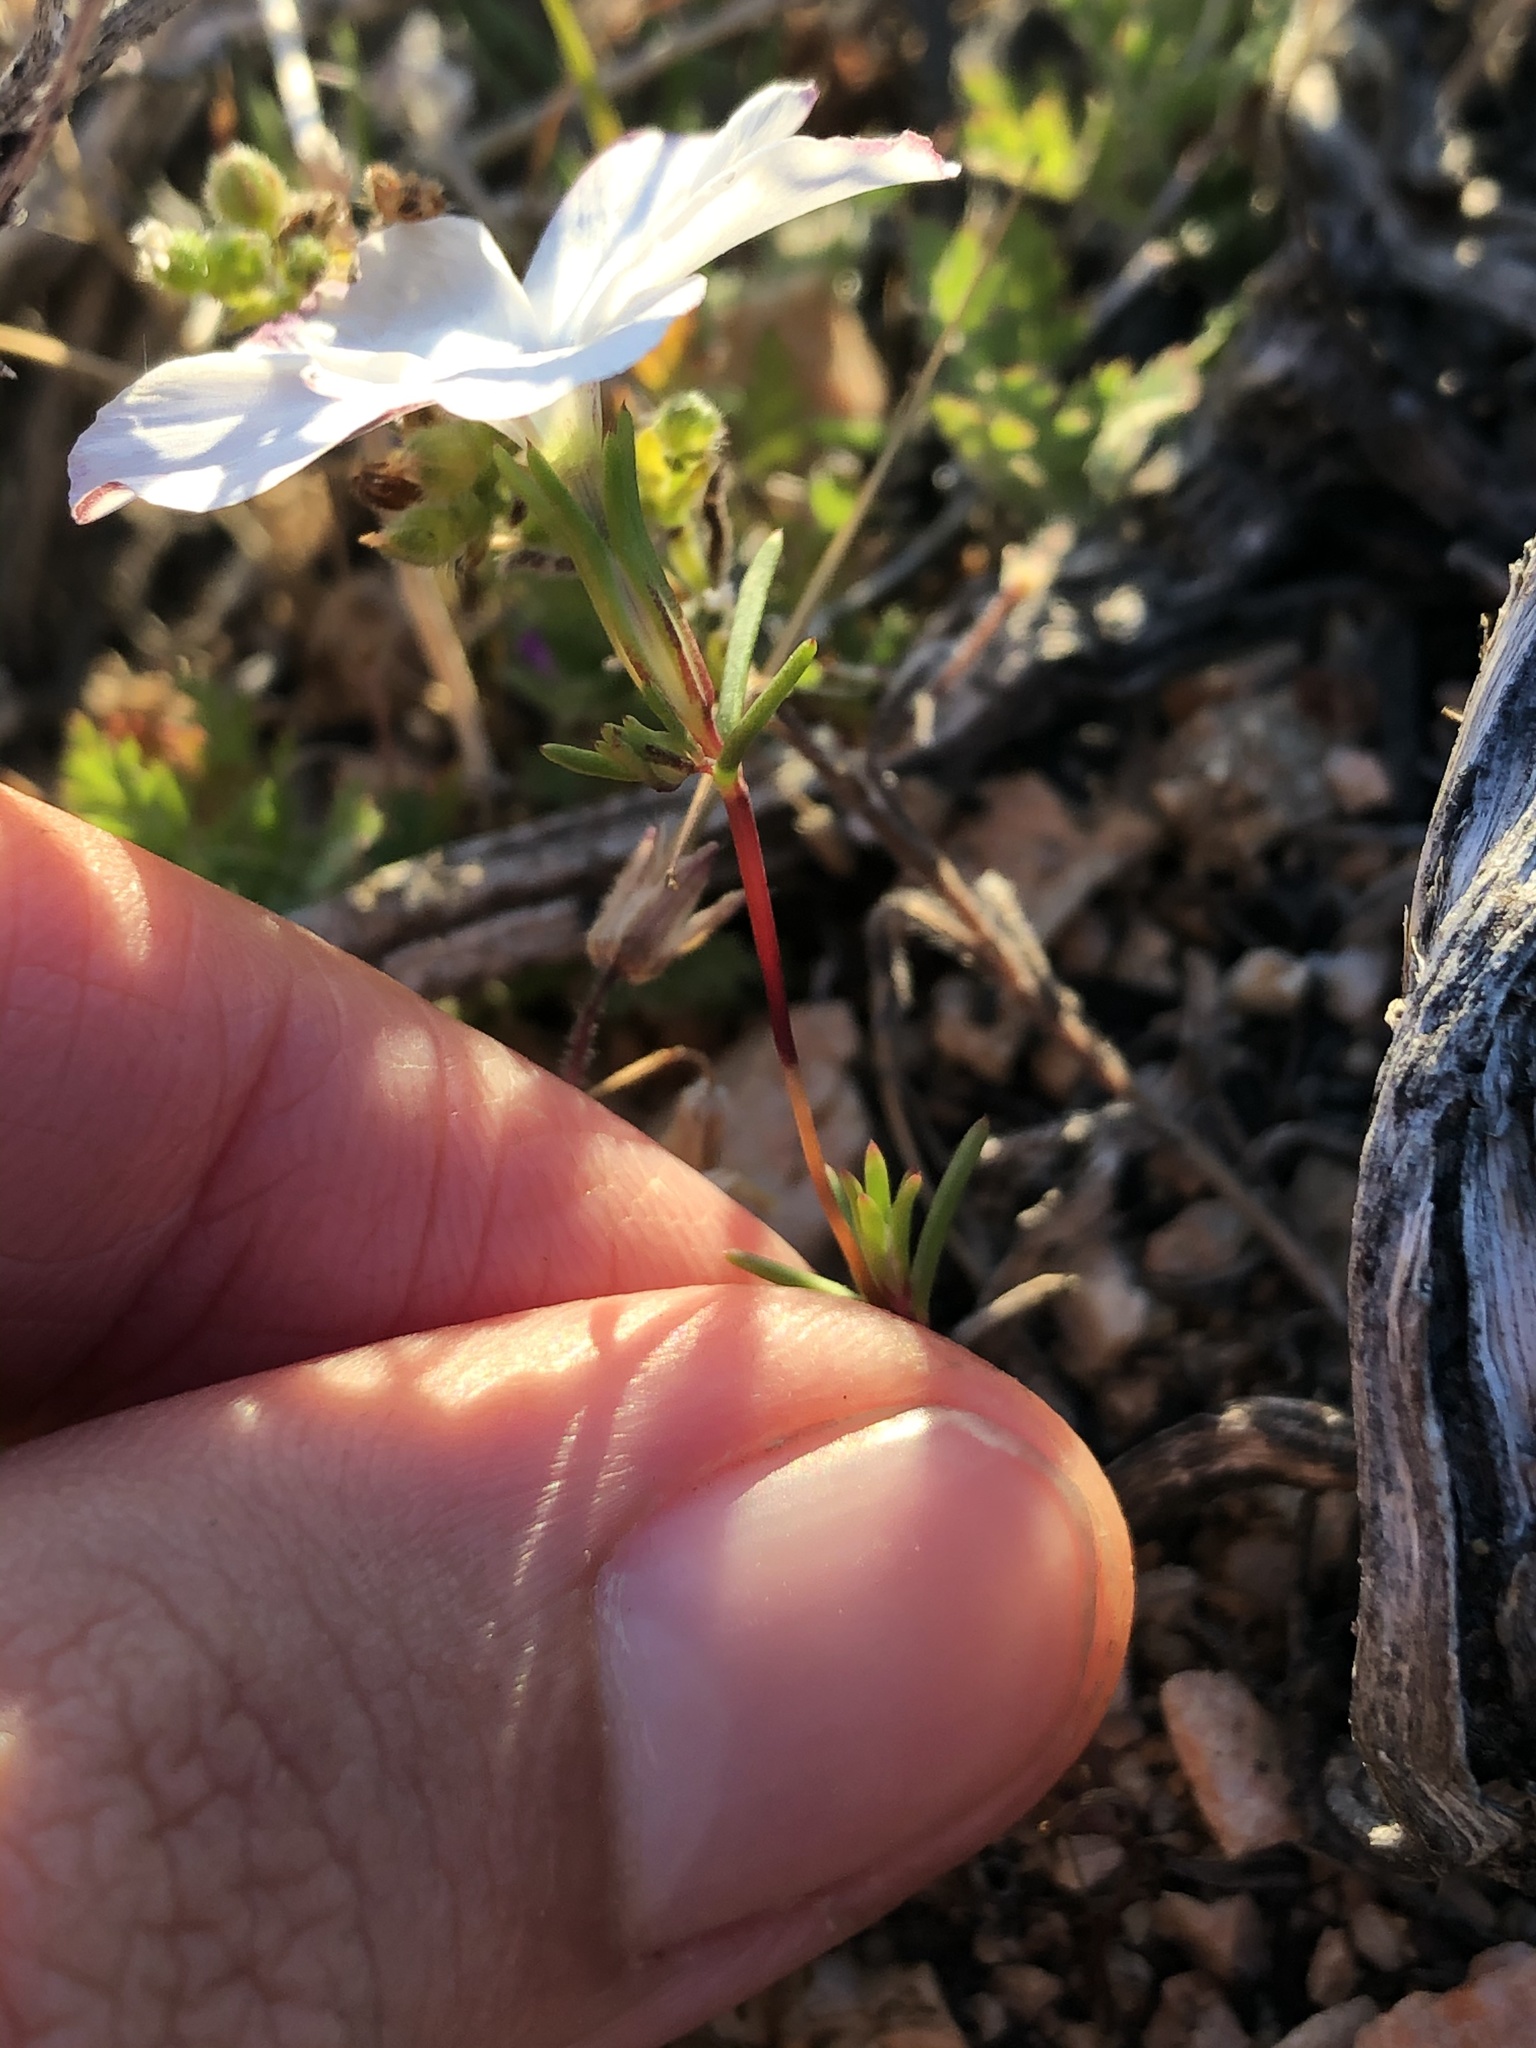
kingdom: Plantae
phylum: Tracheophyta
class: Magnoliopsida
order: Ericales
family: Polemoniaceae
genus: Linanthus
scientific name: Linanthus dichotomus
